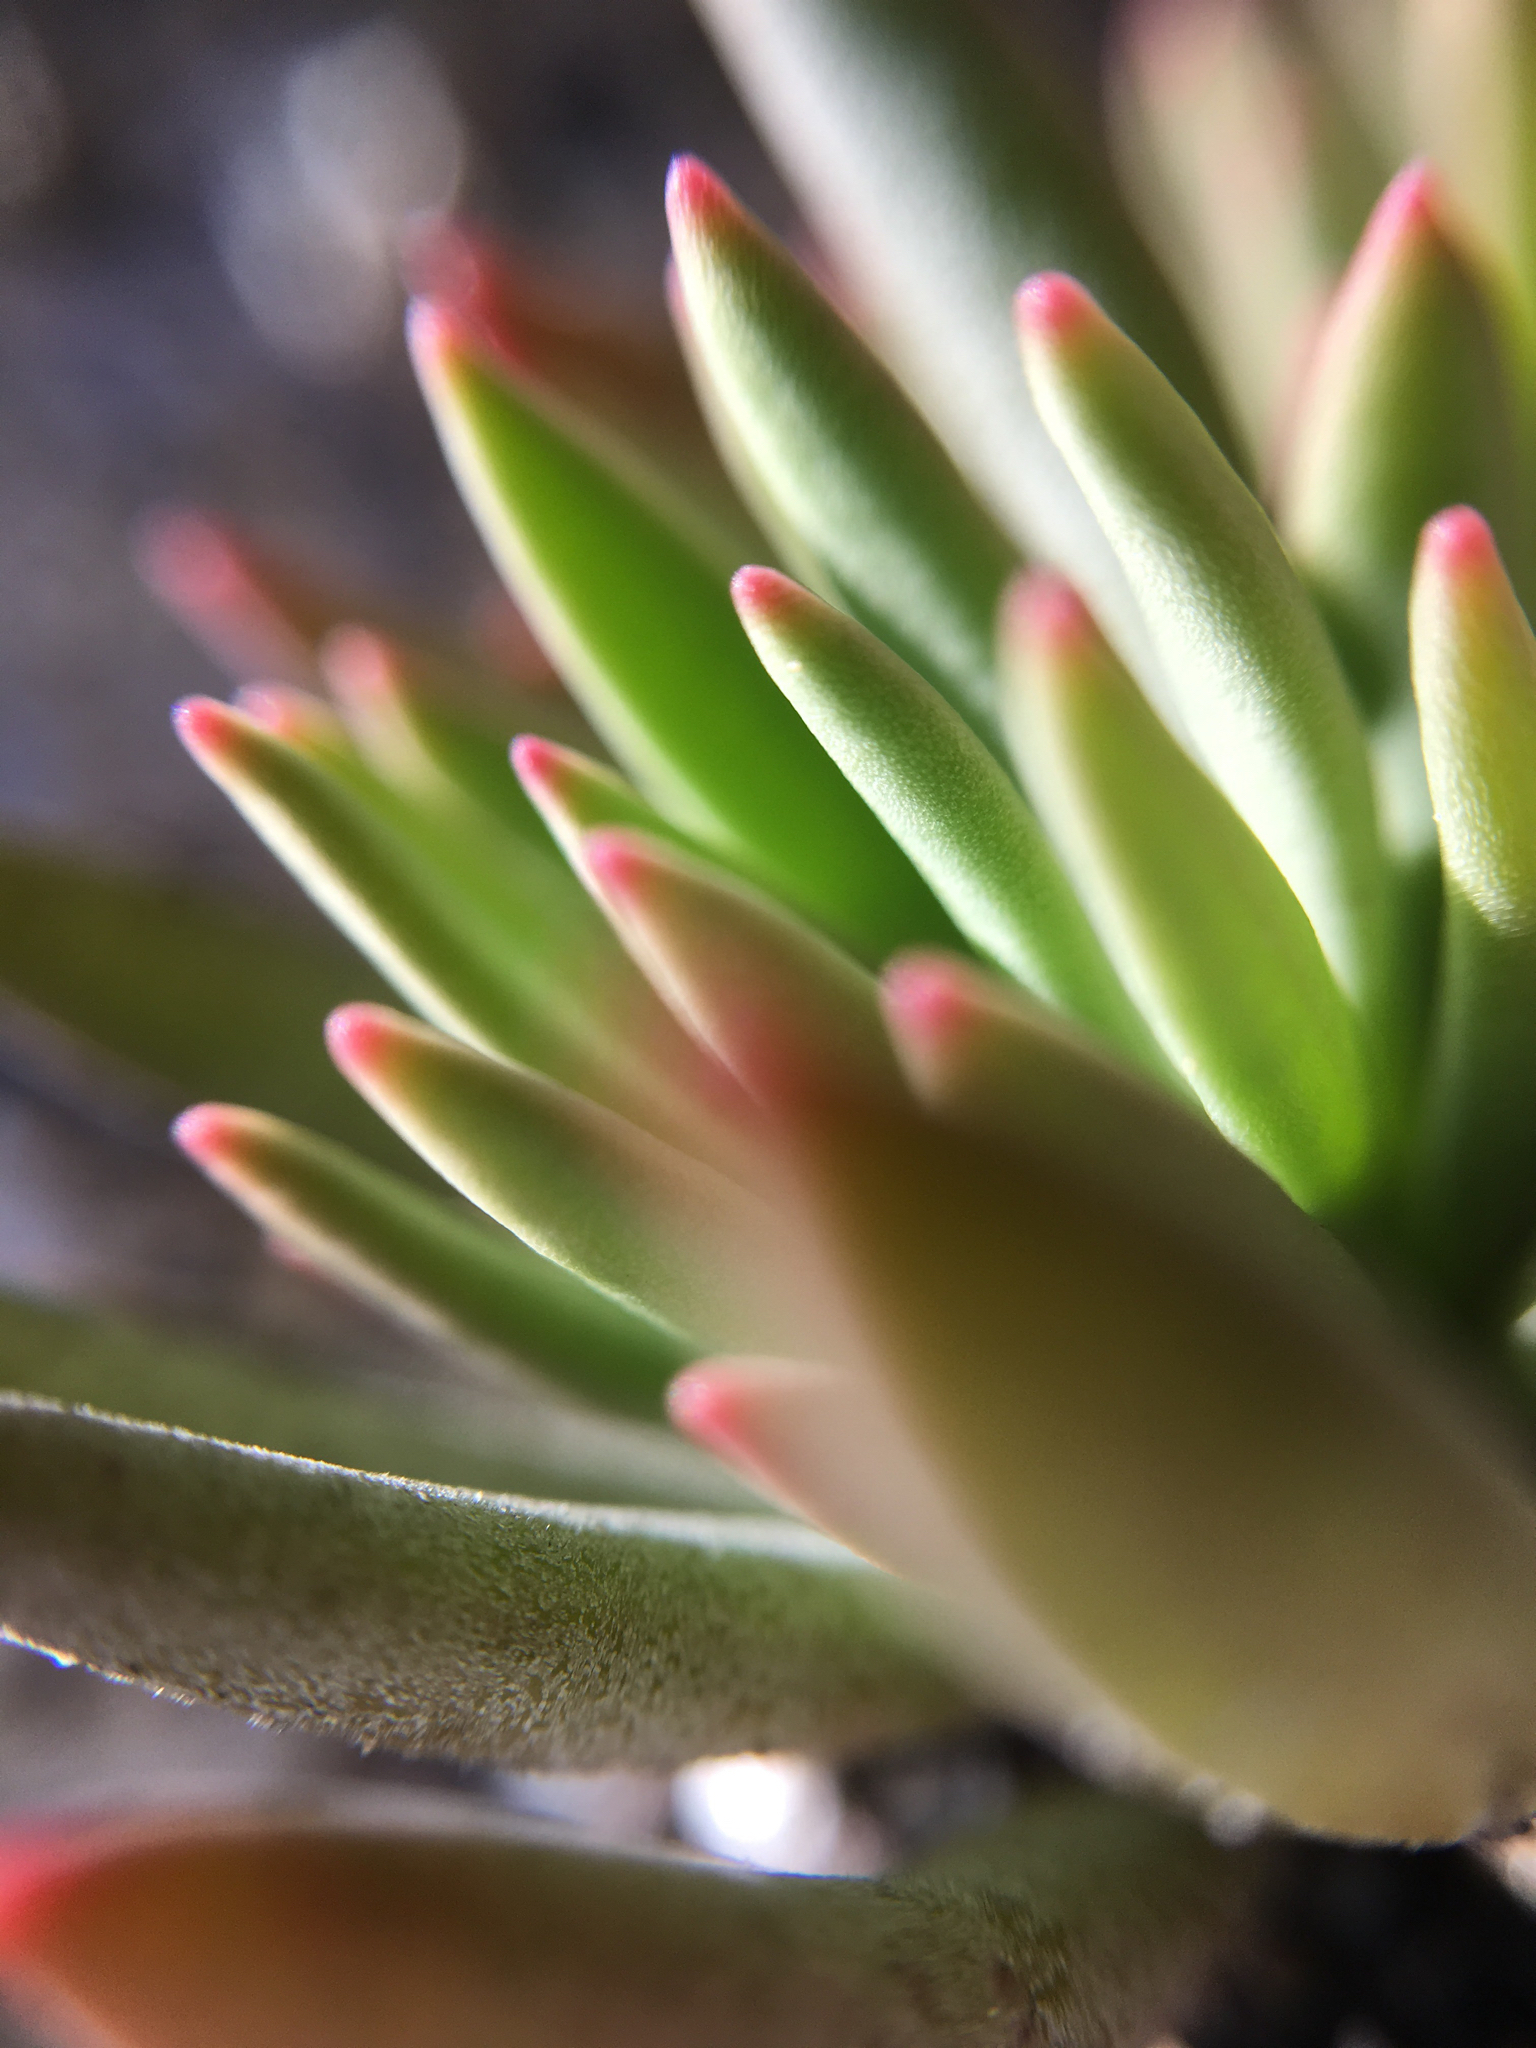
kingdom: Plantae
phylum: Tracheophyta
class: Magnoliopsida
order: Caryophyllales
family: Montiaceae
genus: Lewisia
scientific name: Lewisia leeana
